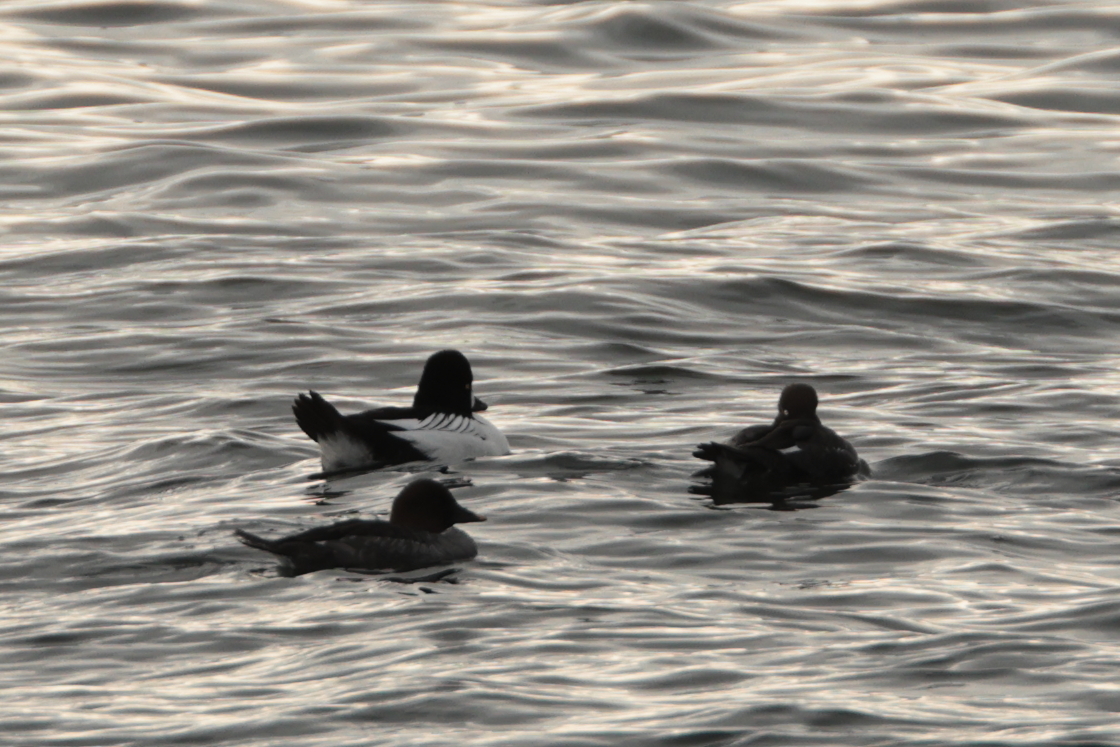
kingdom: Animalia
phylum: Chordata
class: Aves
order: Anseriformes
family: Anatidae
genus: Bucephala
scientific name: Bucephala clangula
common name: Common goldeneye
